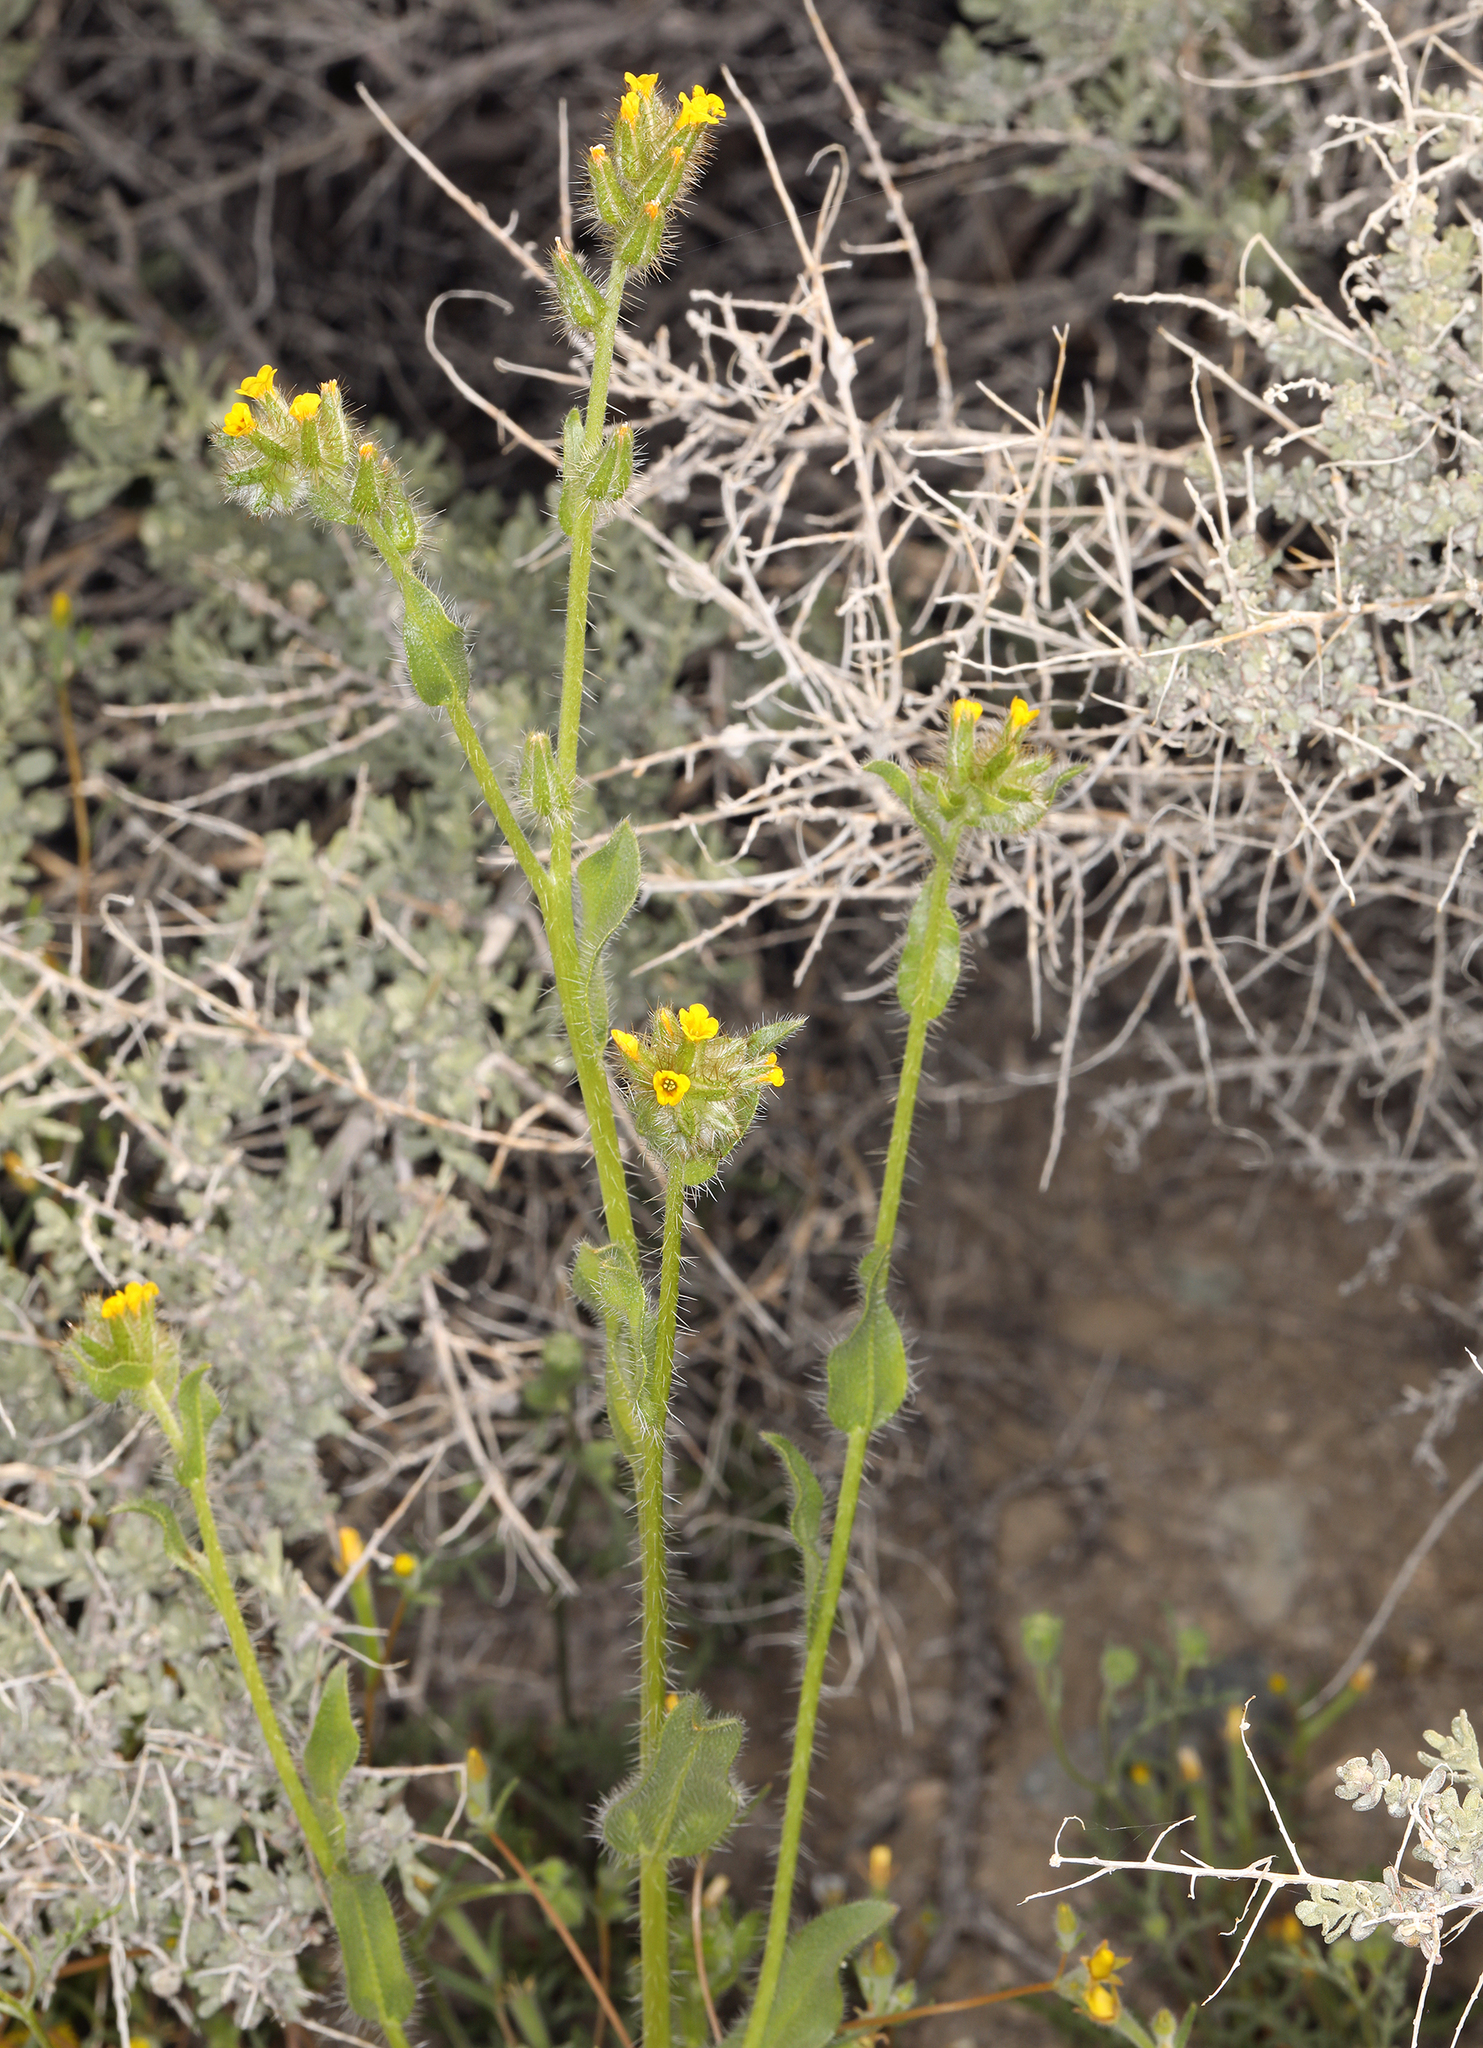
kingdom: Plantae
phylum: Tracheophyta
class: Magnoliopsida
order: Boraginales
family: Boraginaceae
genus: Amsinckia
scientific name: Amsinckia tessellata
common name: Tessellate fiddleneck
